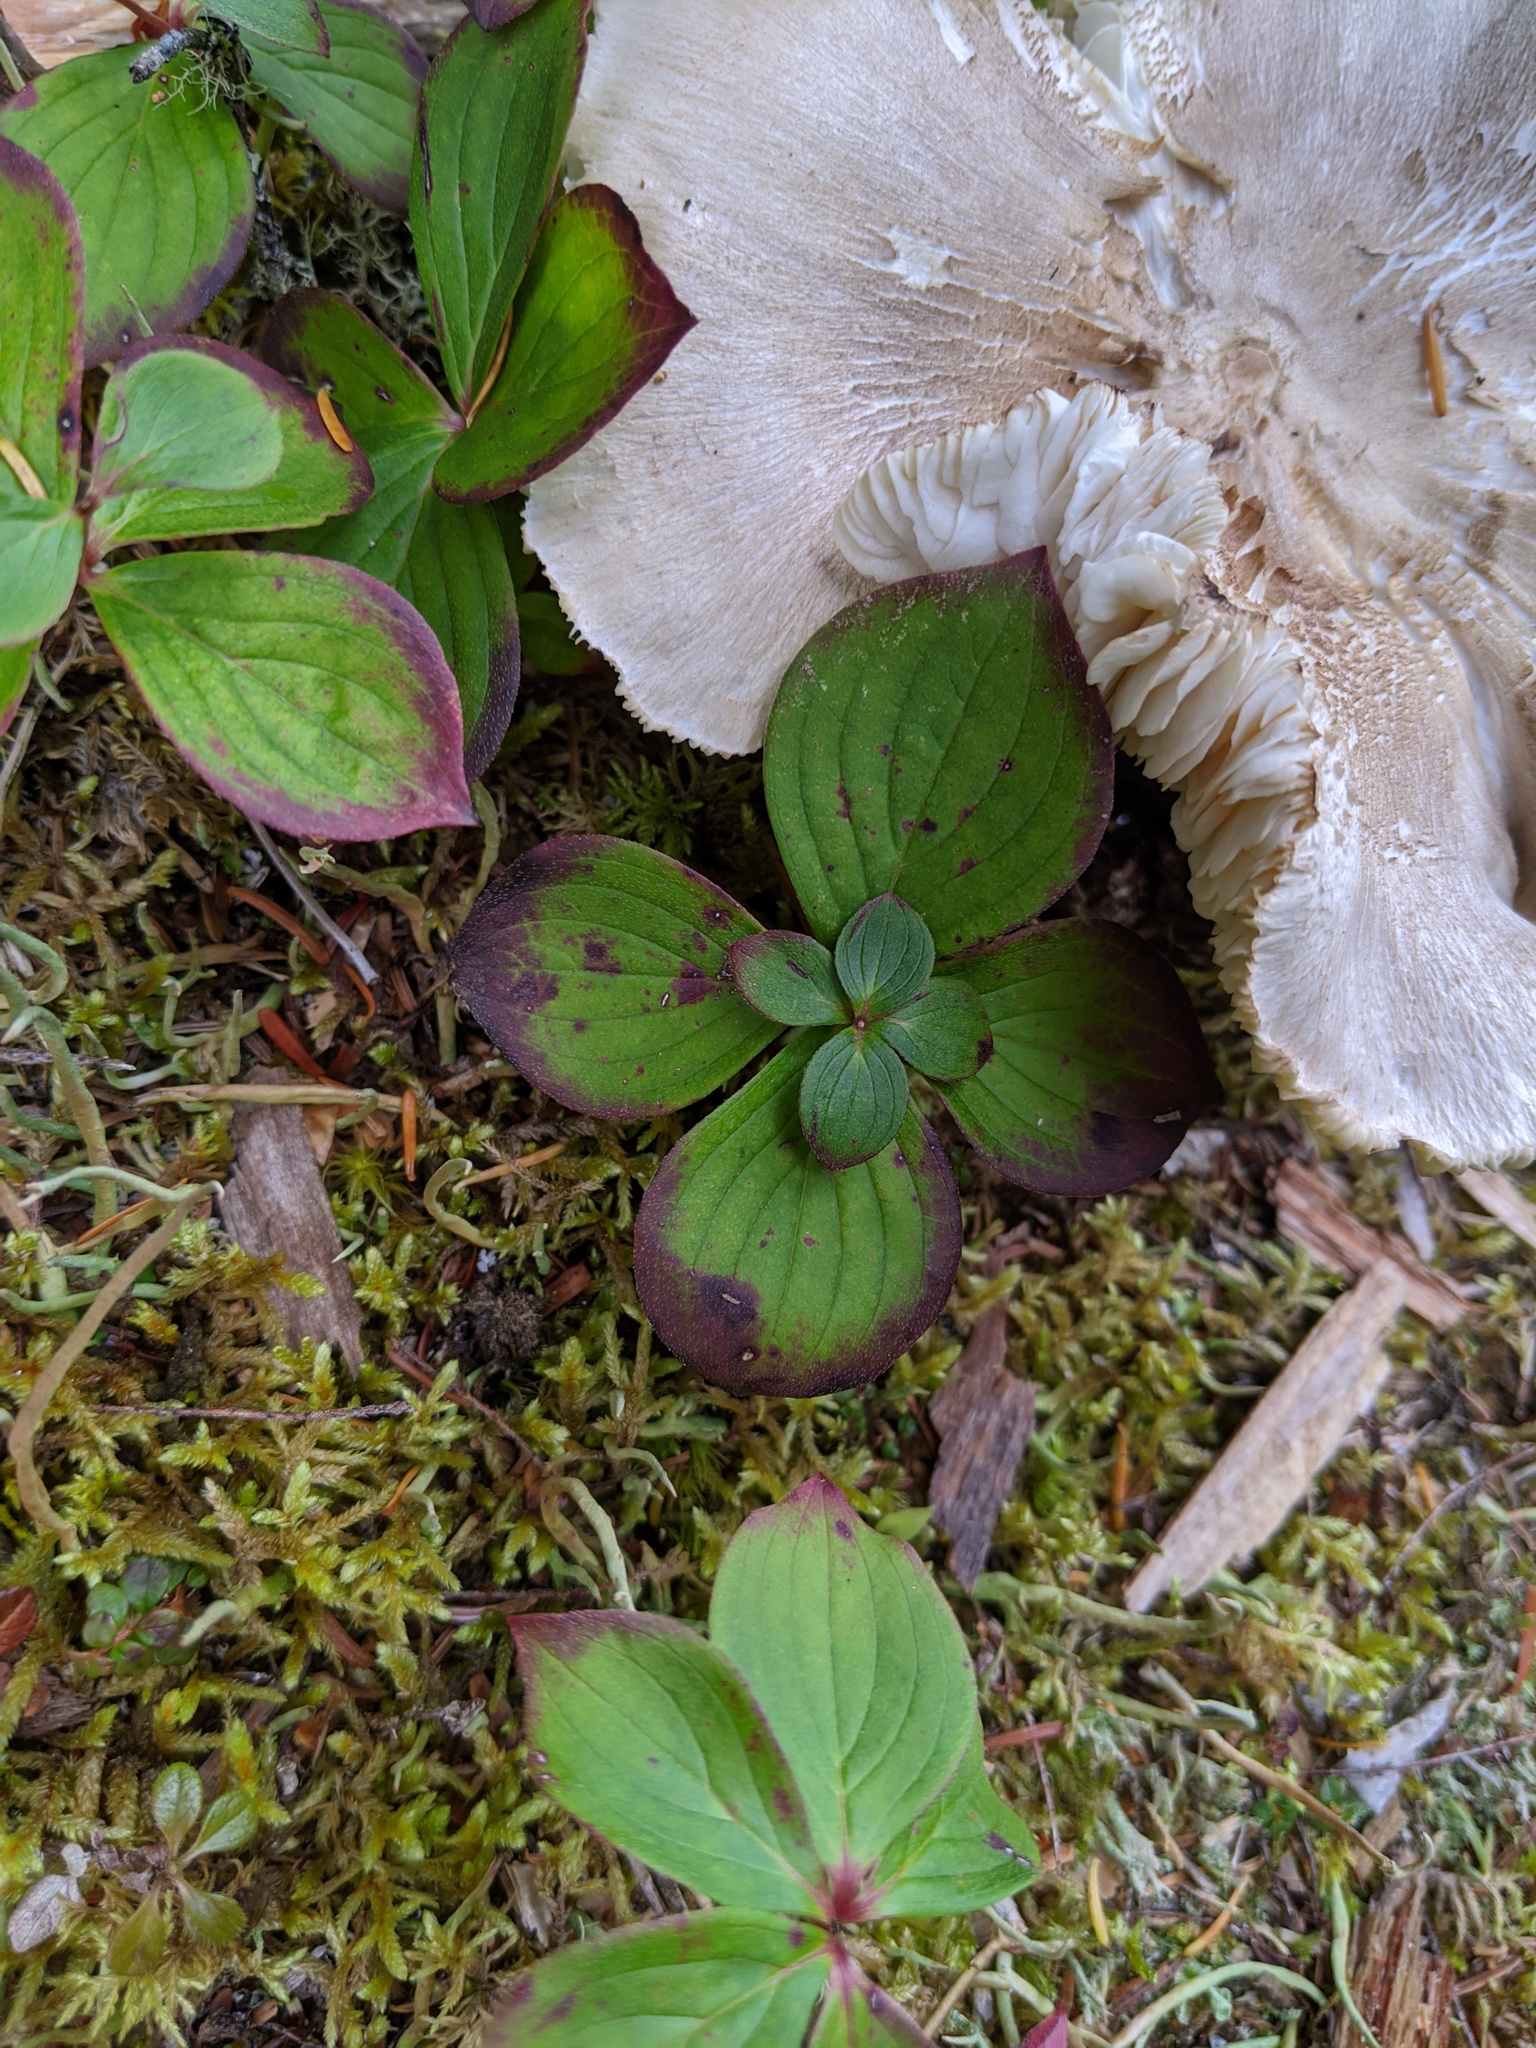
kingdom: Plantae
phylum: Tracheophyta
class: Magnoliopsida
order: Cornales
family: Cornaceae
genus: Cornus
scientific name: Cornus canadensis
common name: Creeping dogwood
